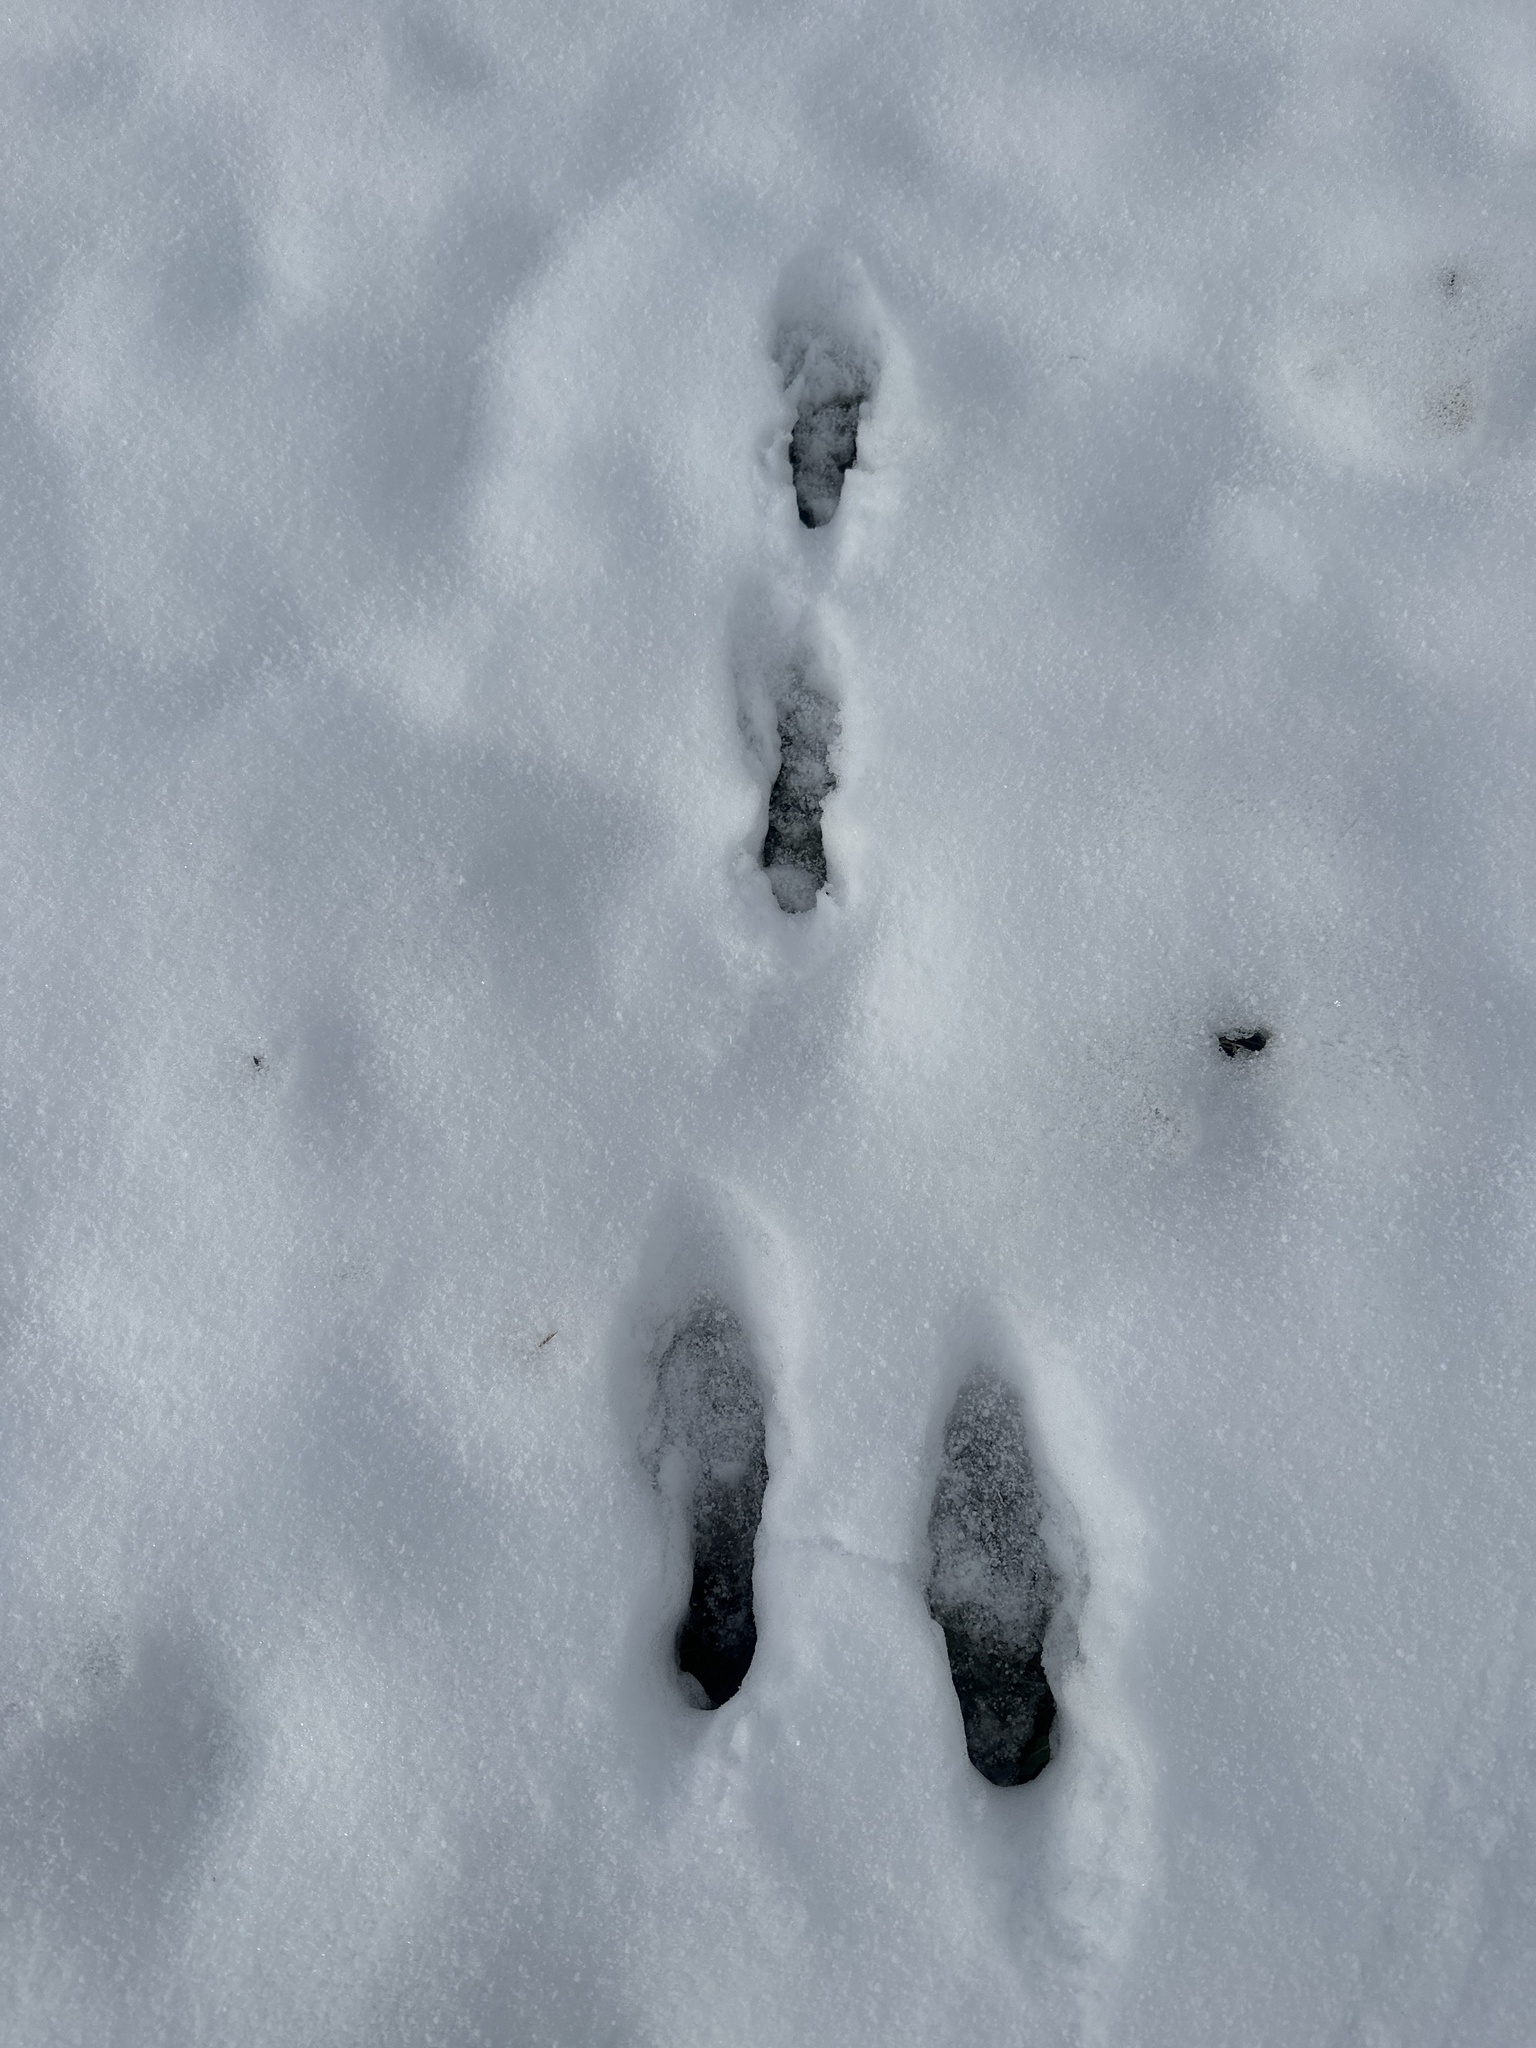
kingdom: Animalia
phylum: Chordata
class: Mammalia
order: Lagomorpha
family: Leporidae
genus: Lepus
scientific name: Lepus europaeus
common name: European hare
